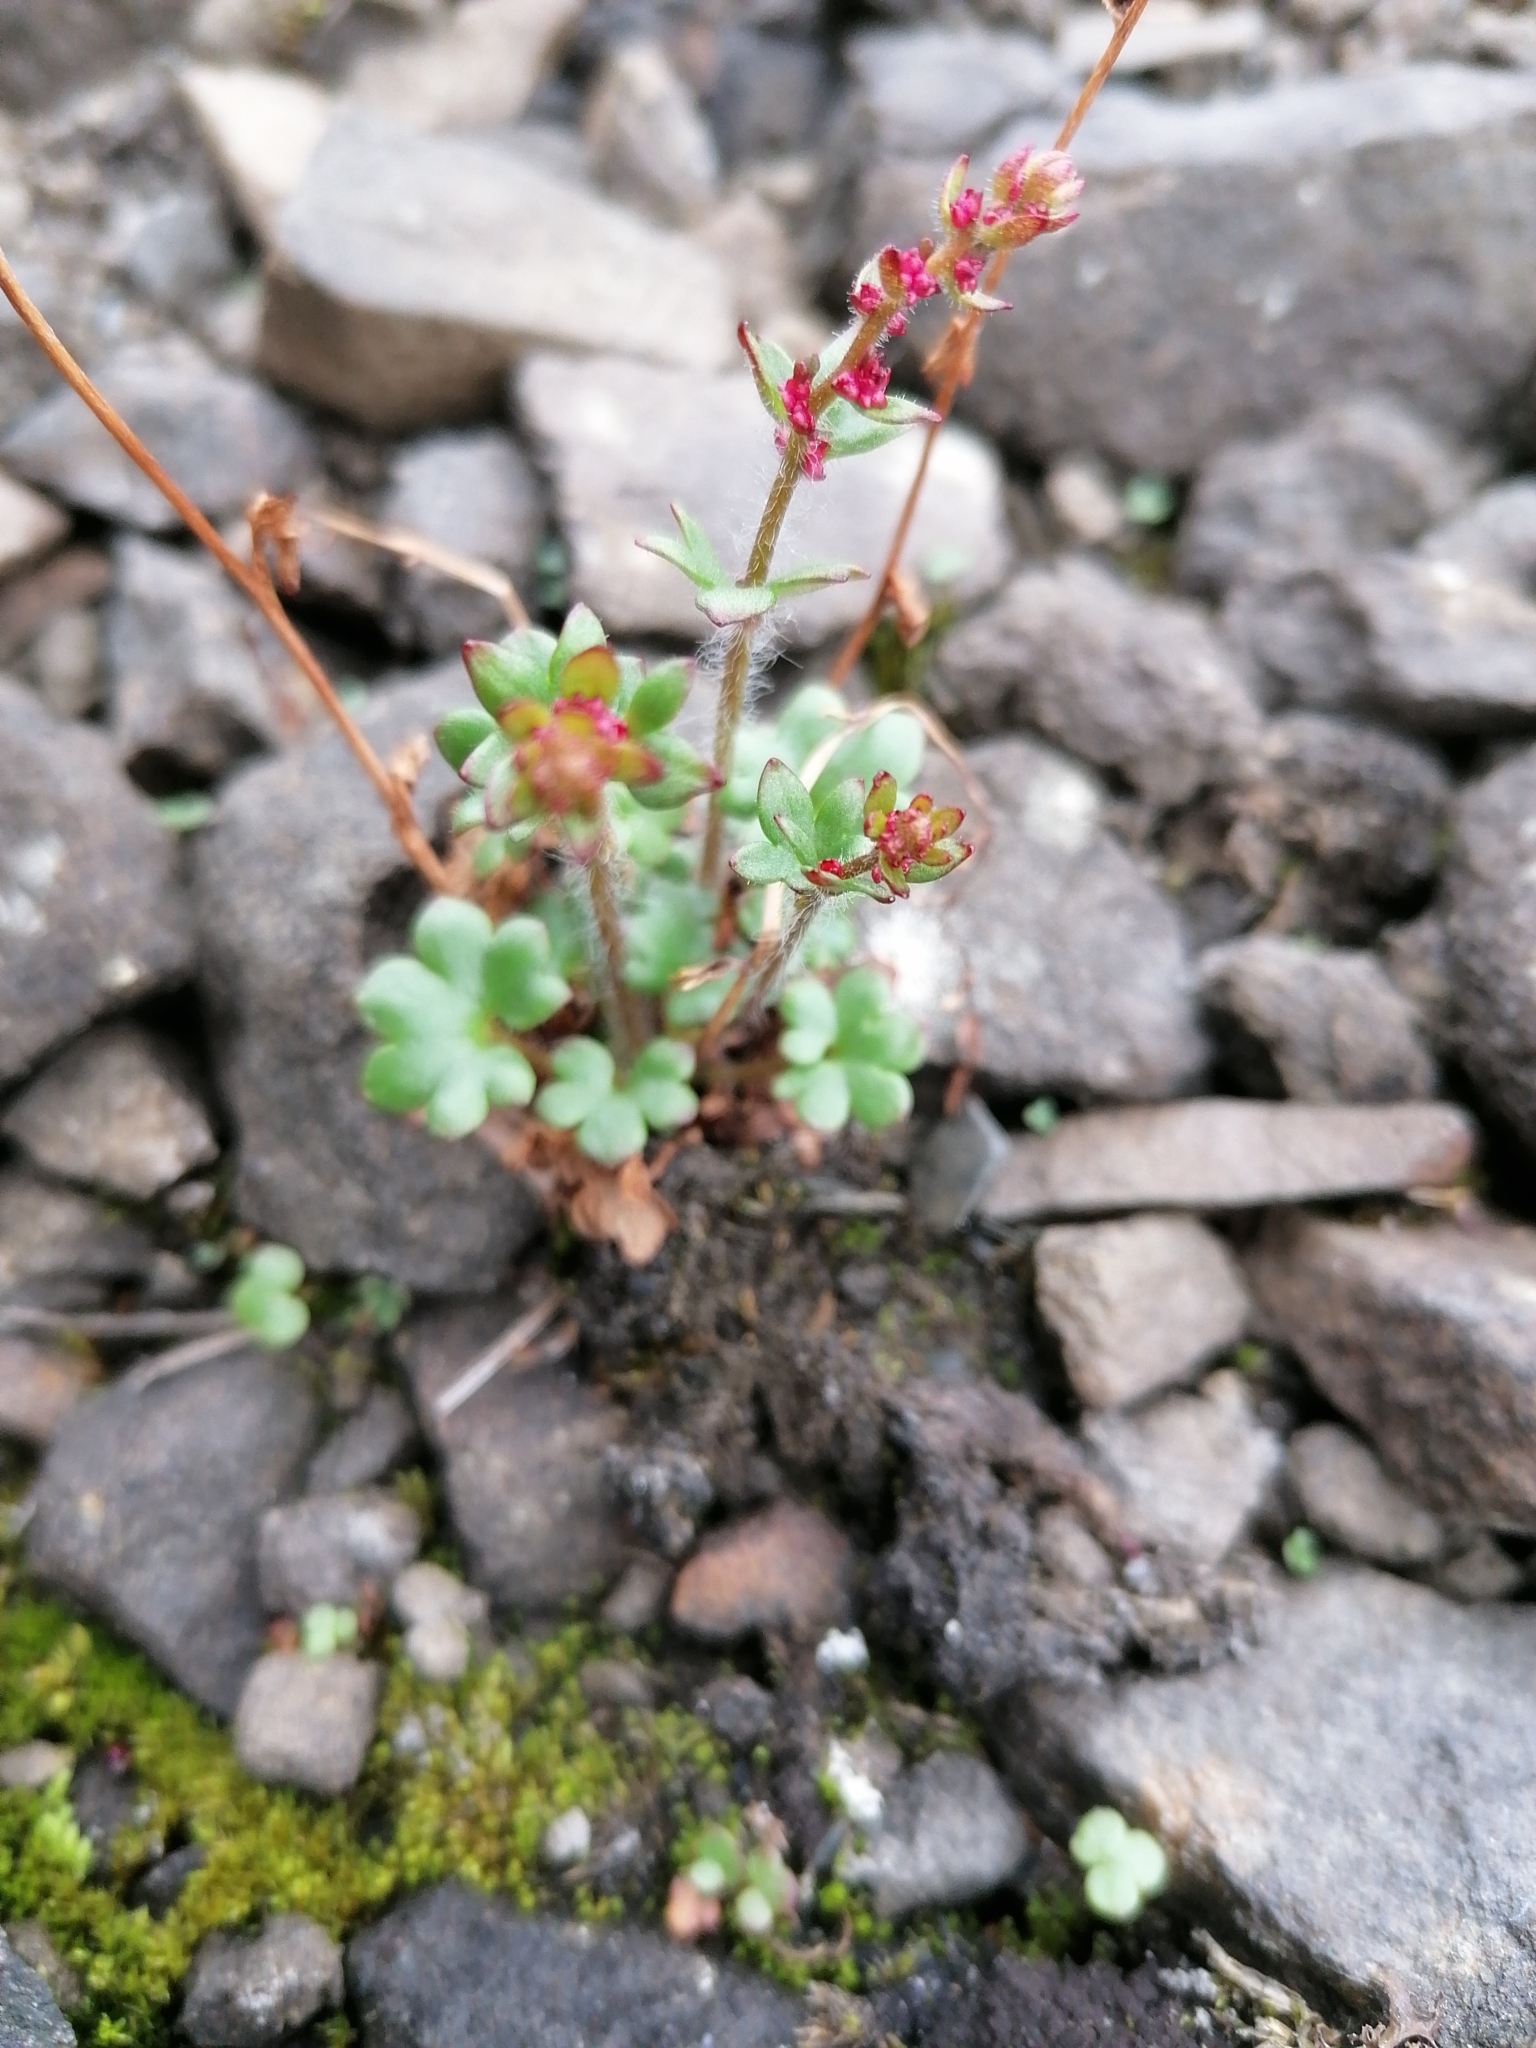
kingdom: Plantae
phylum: Tracheophyta
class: Magnoliopsida
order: Saxifragales
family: Saxifragaceae
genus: Saxifraga
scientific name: Saxifraga cernua
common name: Drooping saxifrage
